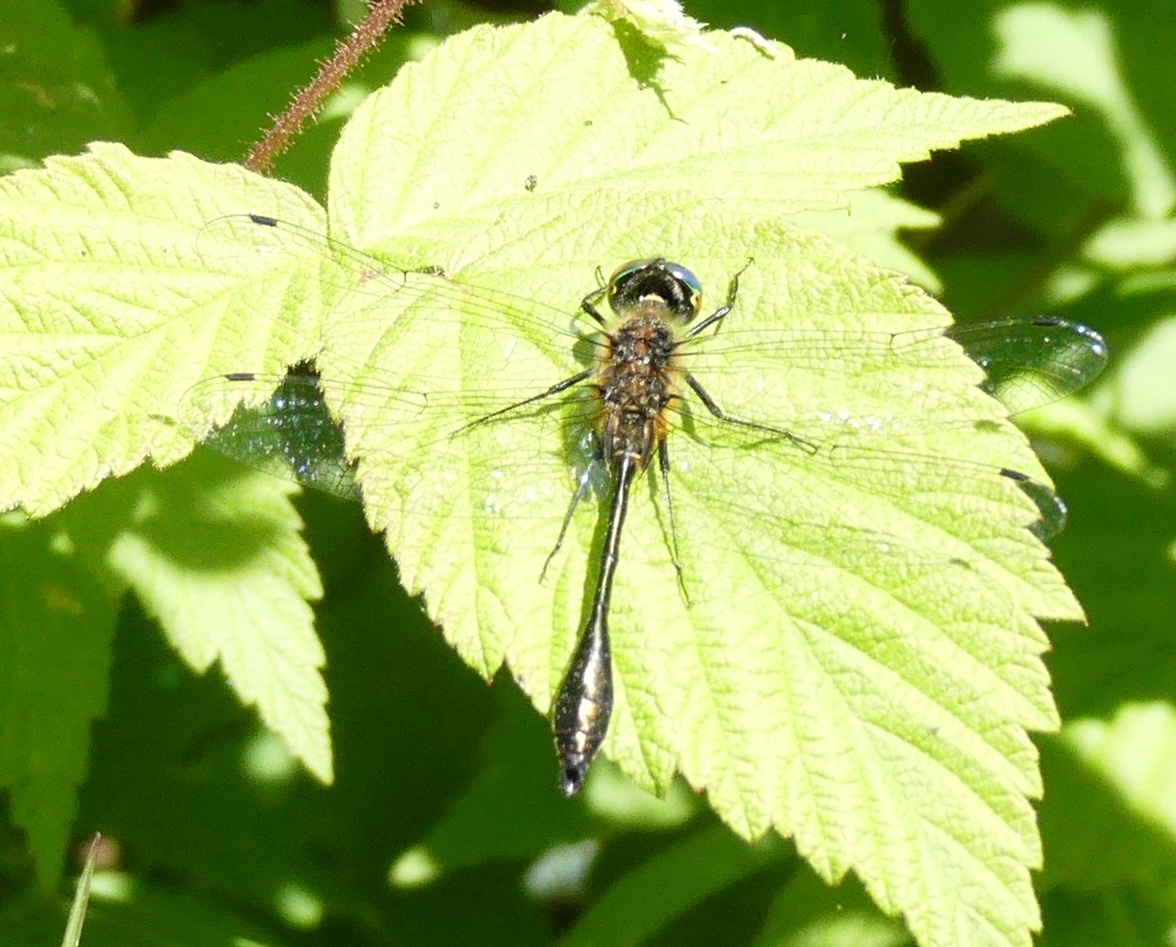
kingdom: Animalia
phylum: Arthropoda
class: Insecta
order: Odonata
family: Corduliidae
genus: Dorocordulia
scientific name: Dorocordulia libera
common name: Racket-tailed emerald
